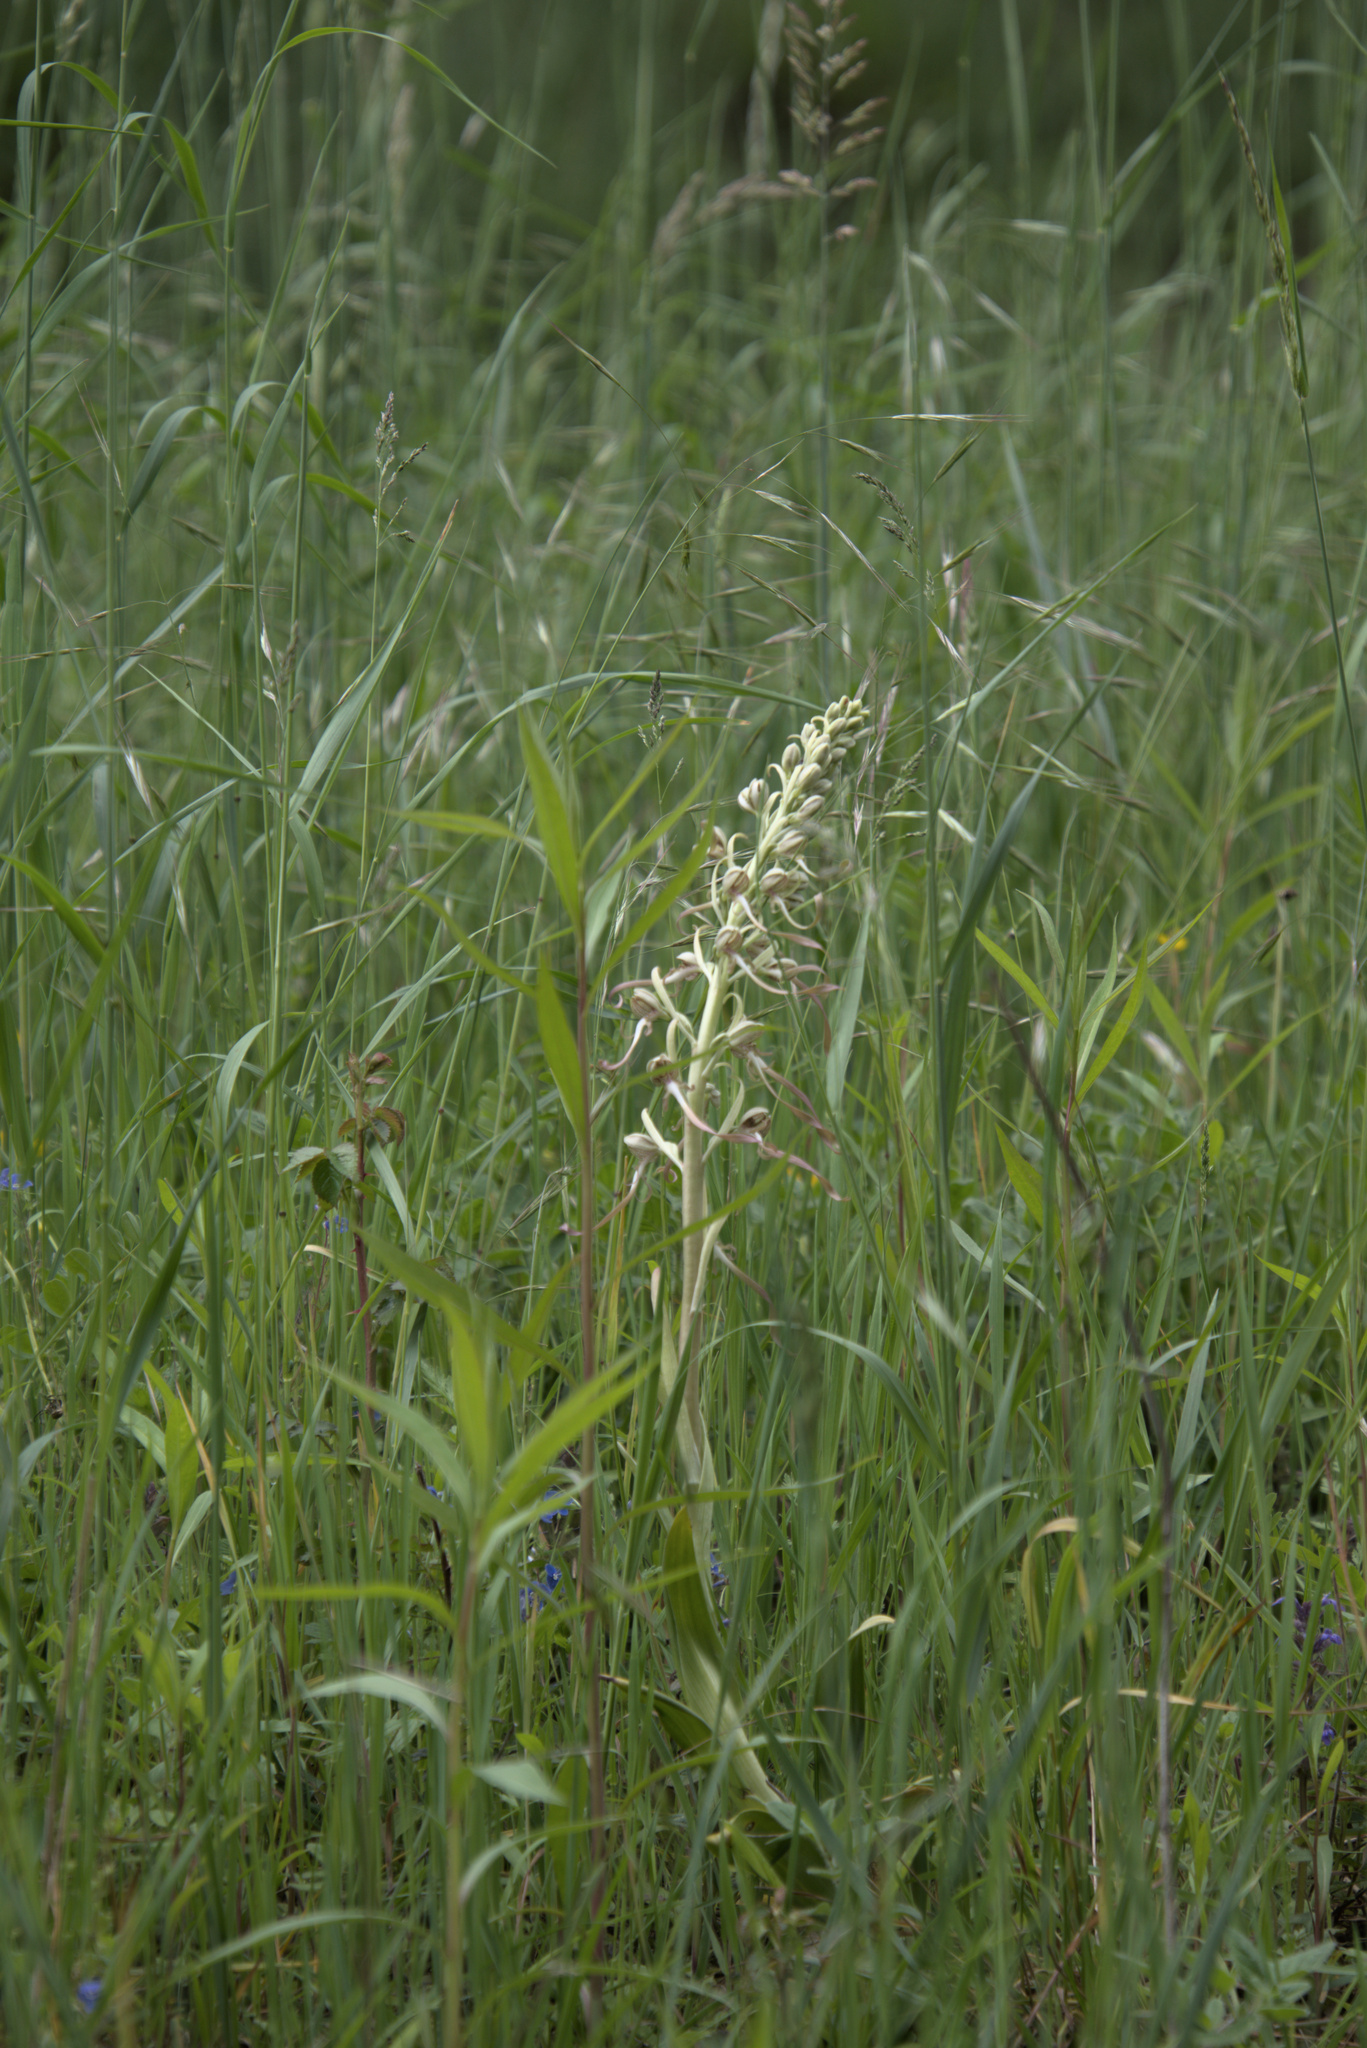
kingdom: Plantae
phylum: Tracheophyta
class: Liliopsida
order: Asparagales
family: Orchidaceae
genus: Himantoglossum
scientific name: Himantoglossum hircinum
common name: Lizard orchid
